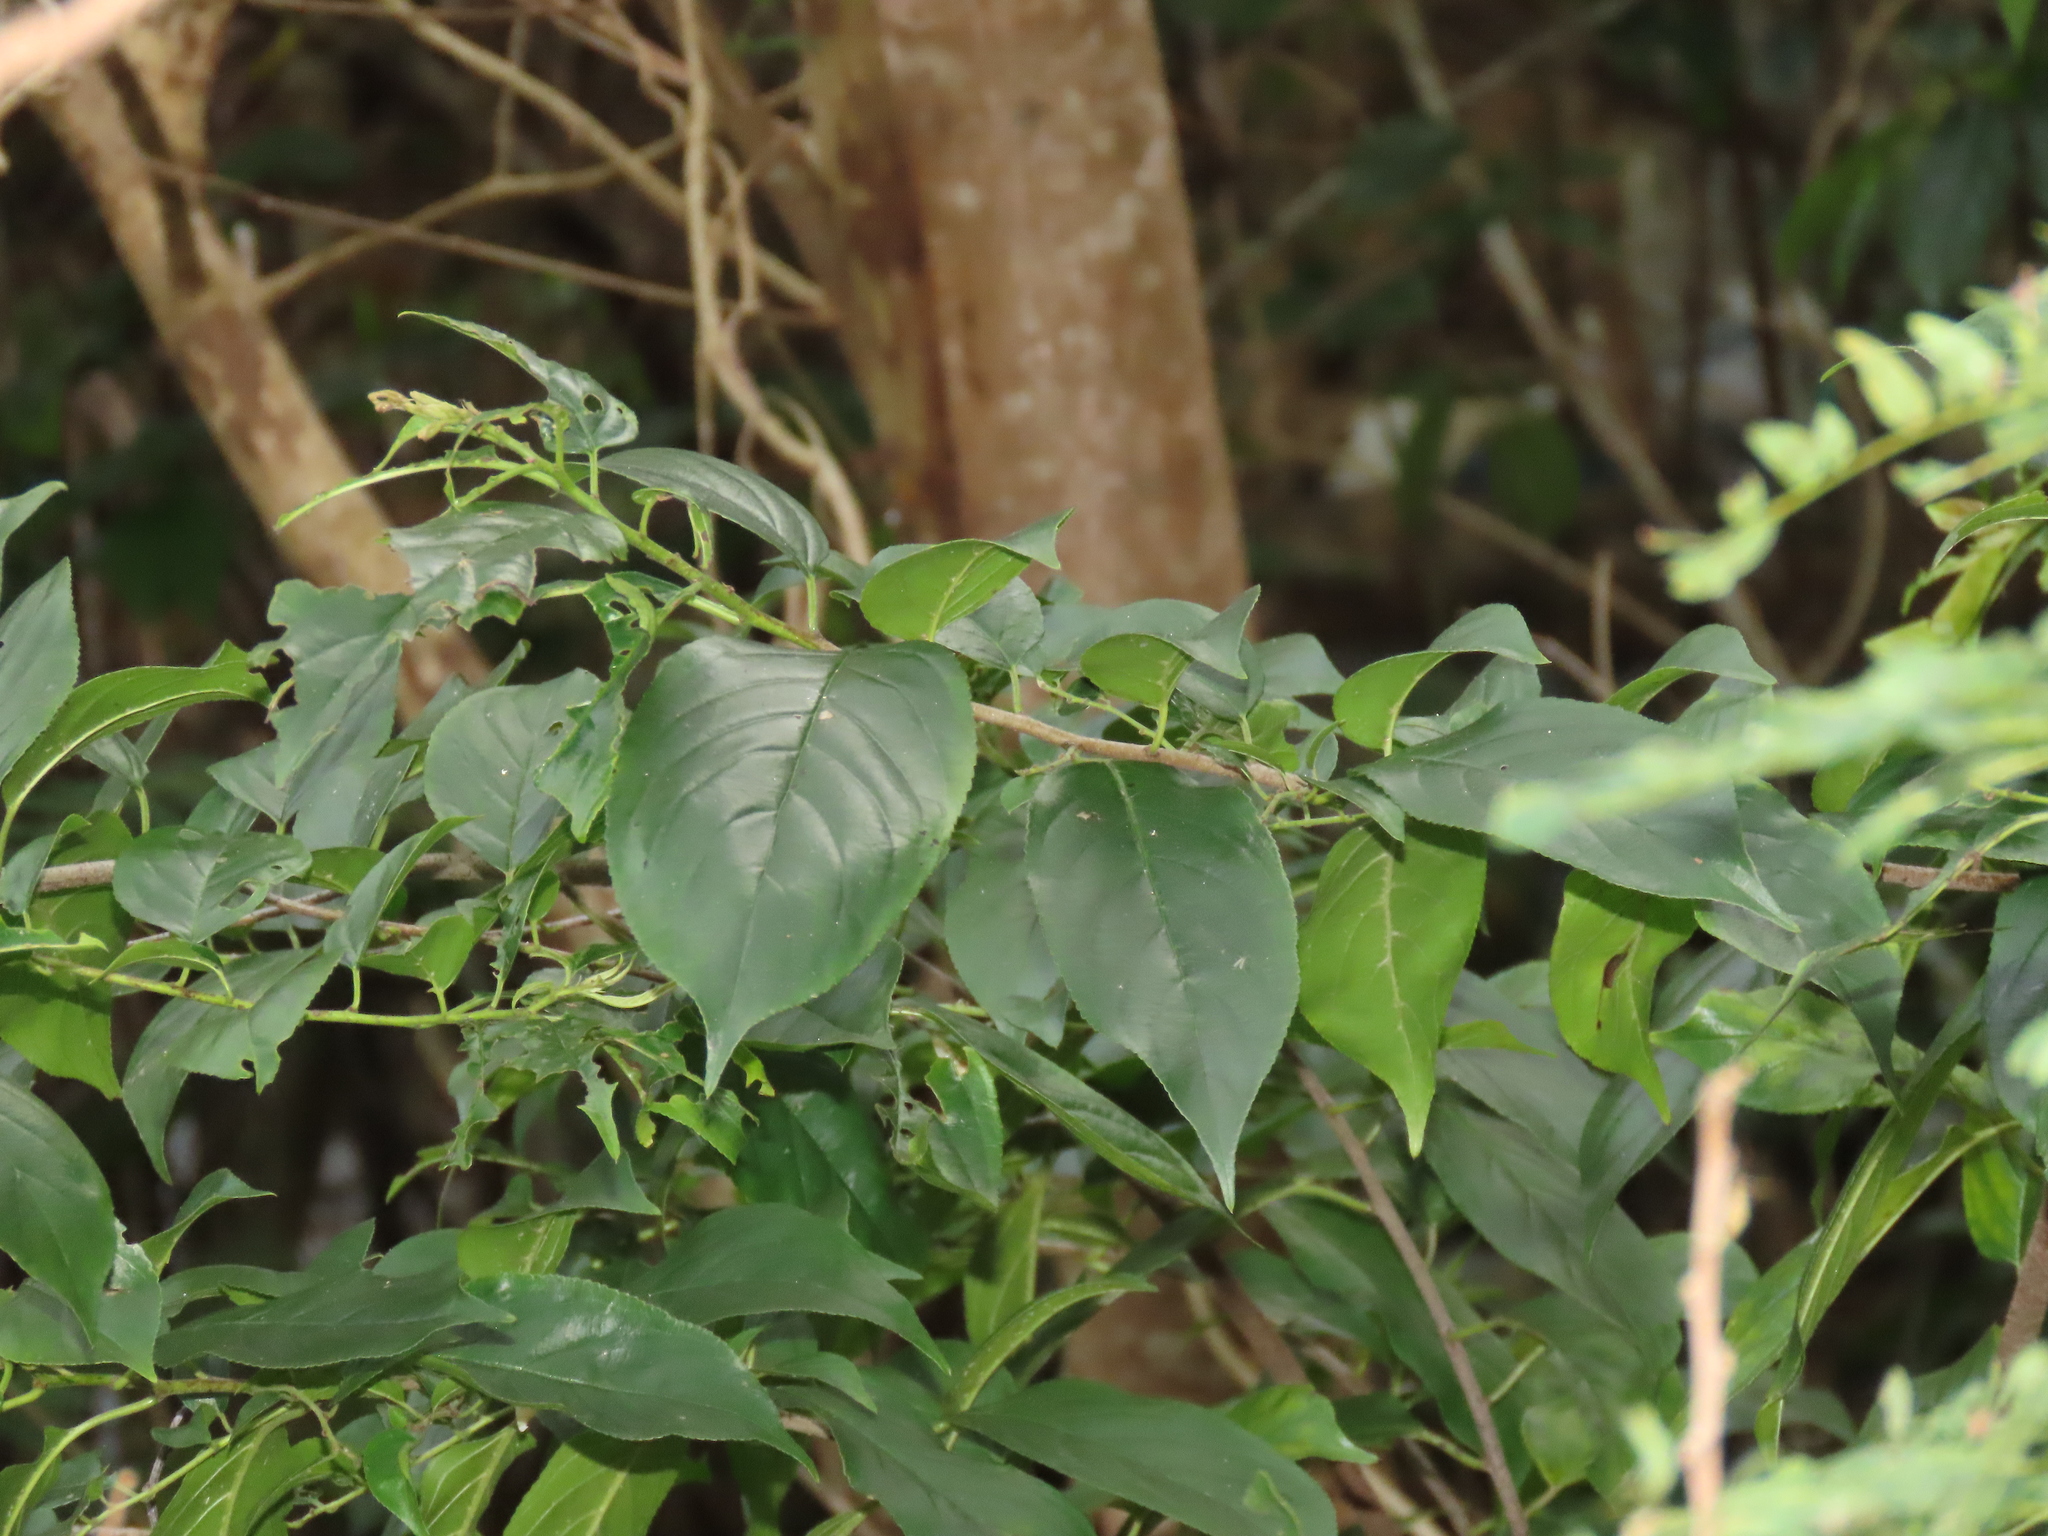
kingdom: Plantae
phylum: Tracheophyta
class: Magnoliopsida
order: Rosales
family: Rhamnaceae
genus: Rhamnus
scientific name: Rhamnus formosana
